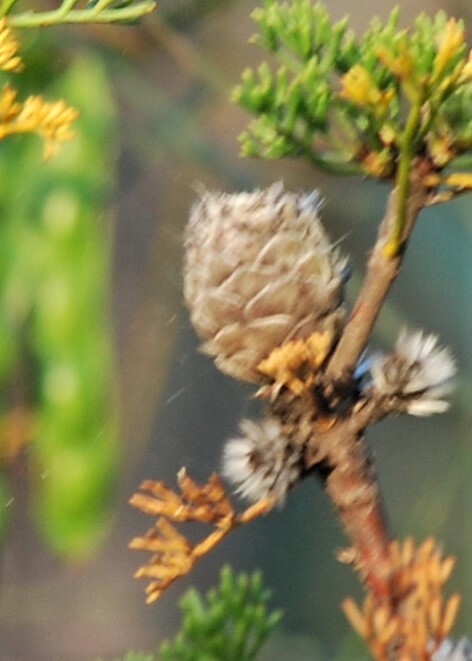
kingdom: Plantae
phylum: Tracheophyta
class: Magnoliopsida
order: Proteales
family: Proteaceae
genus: Petrophile
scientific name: Petrophile canescens
